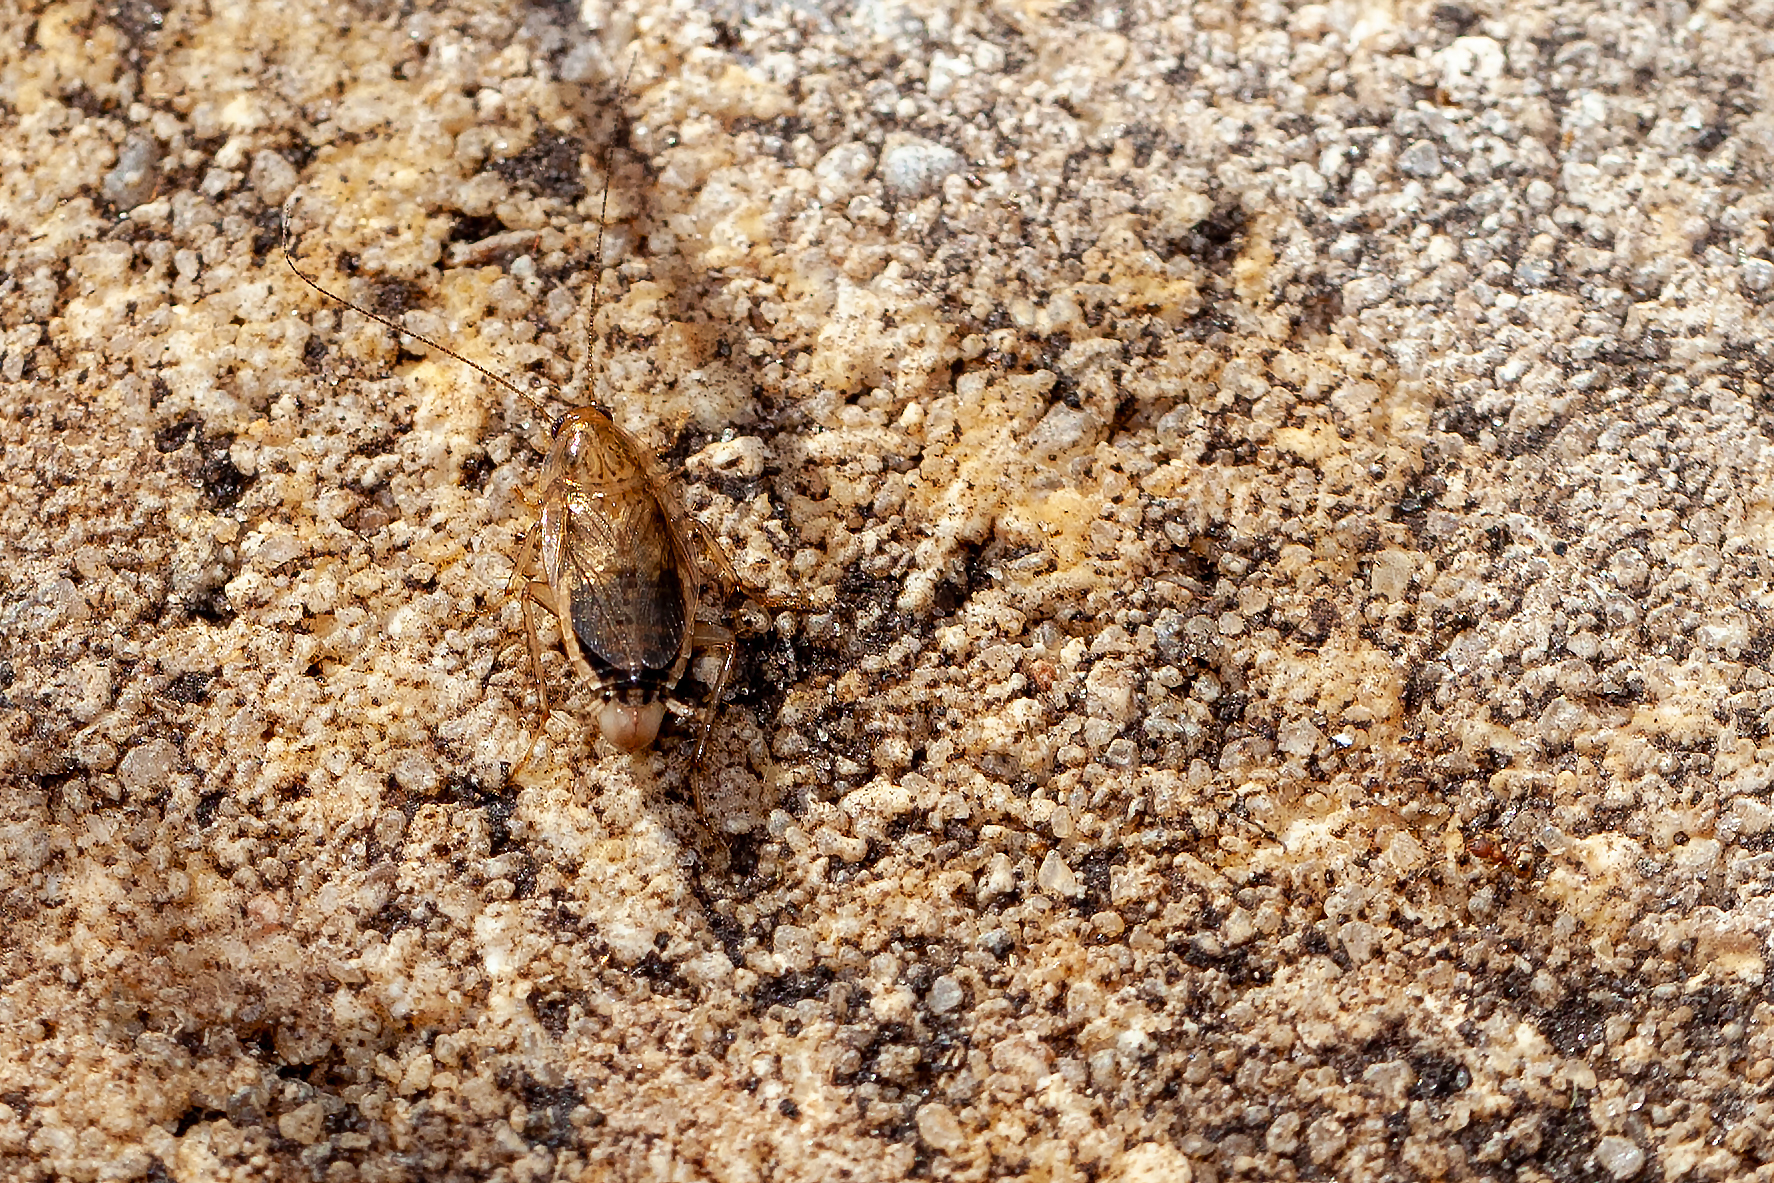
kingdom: Animalia
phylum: Arthropoda
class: Insecta
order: Blattodea
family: Ectobiidae
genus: Cariblatta
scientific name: Cariblatta minima
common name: Least yellow cockroach
